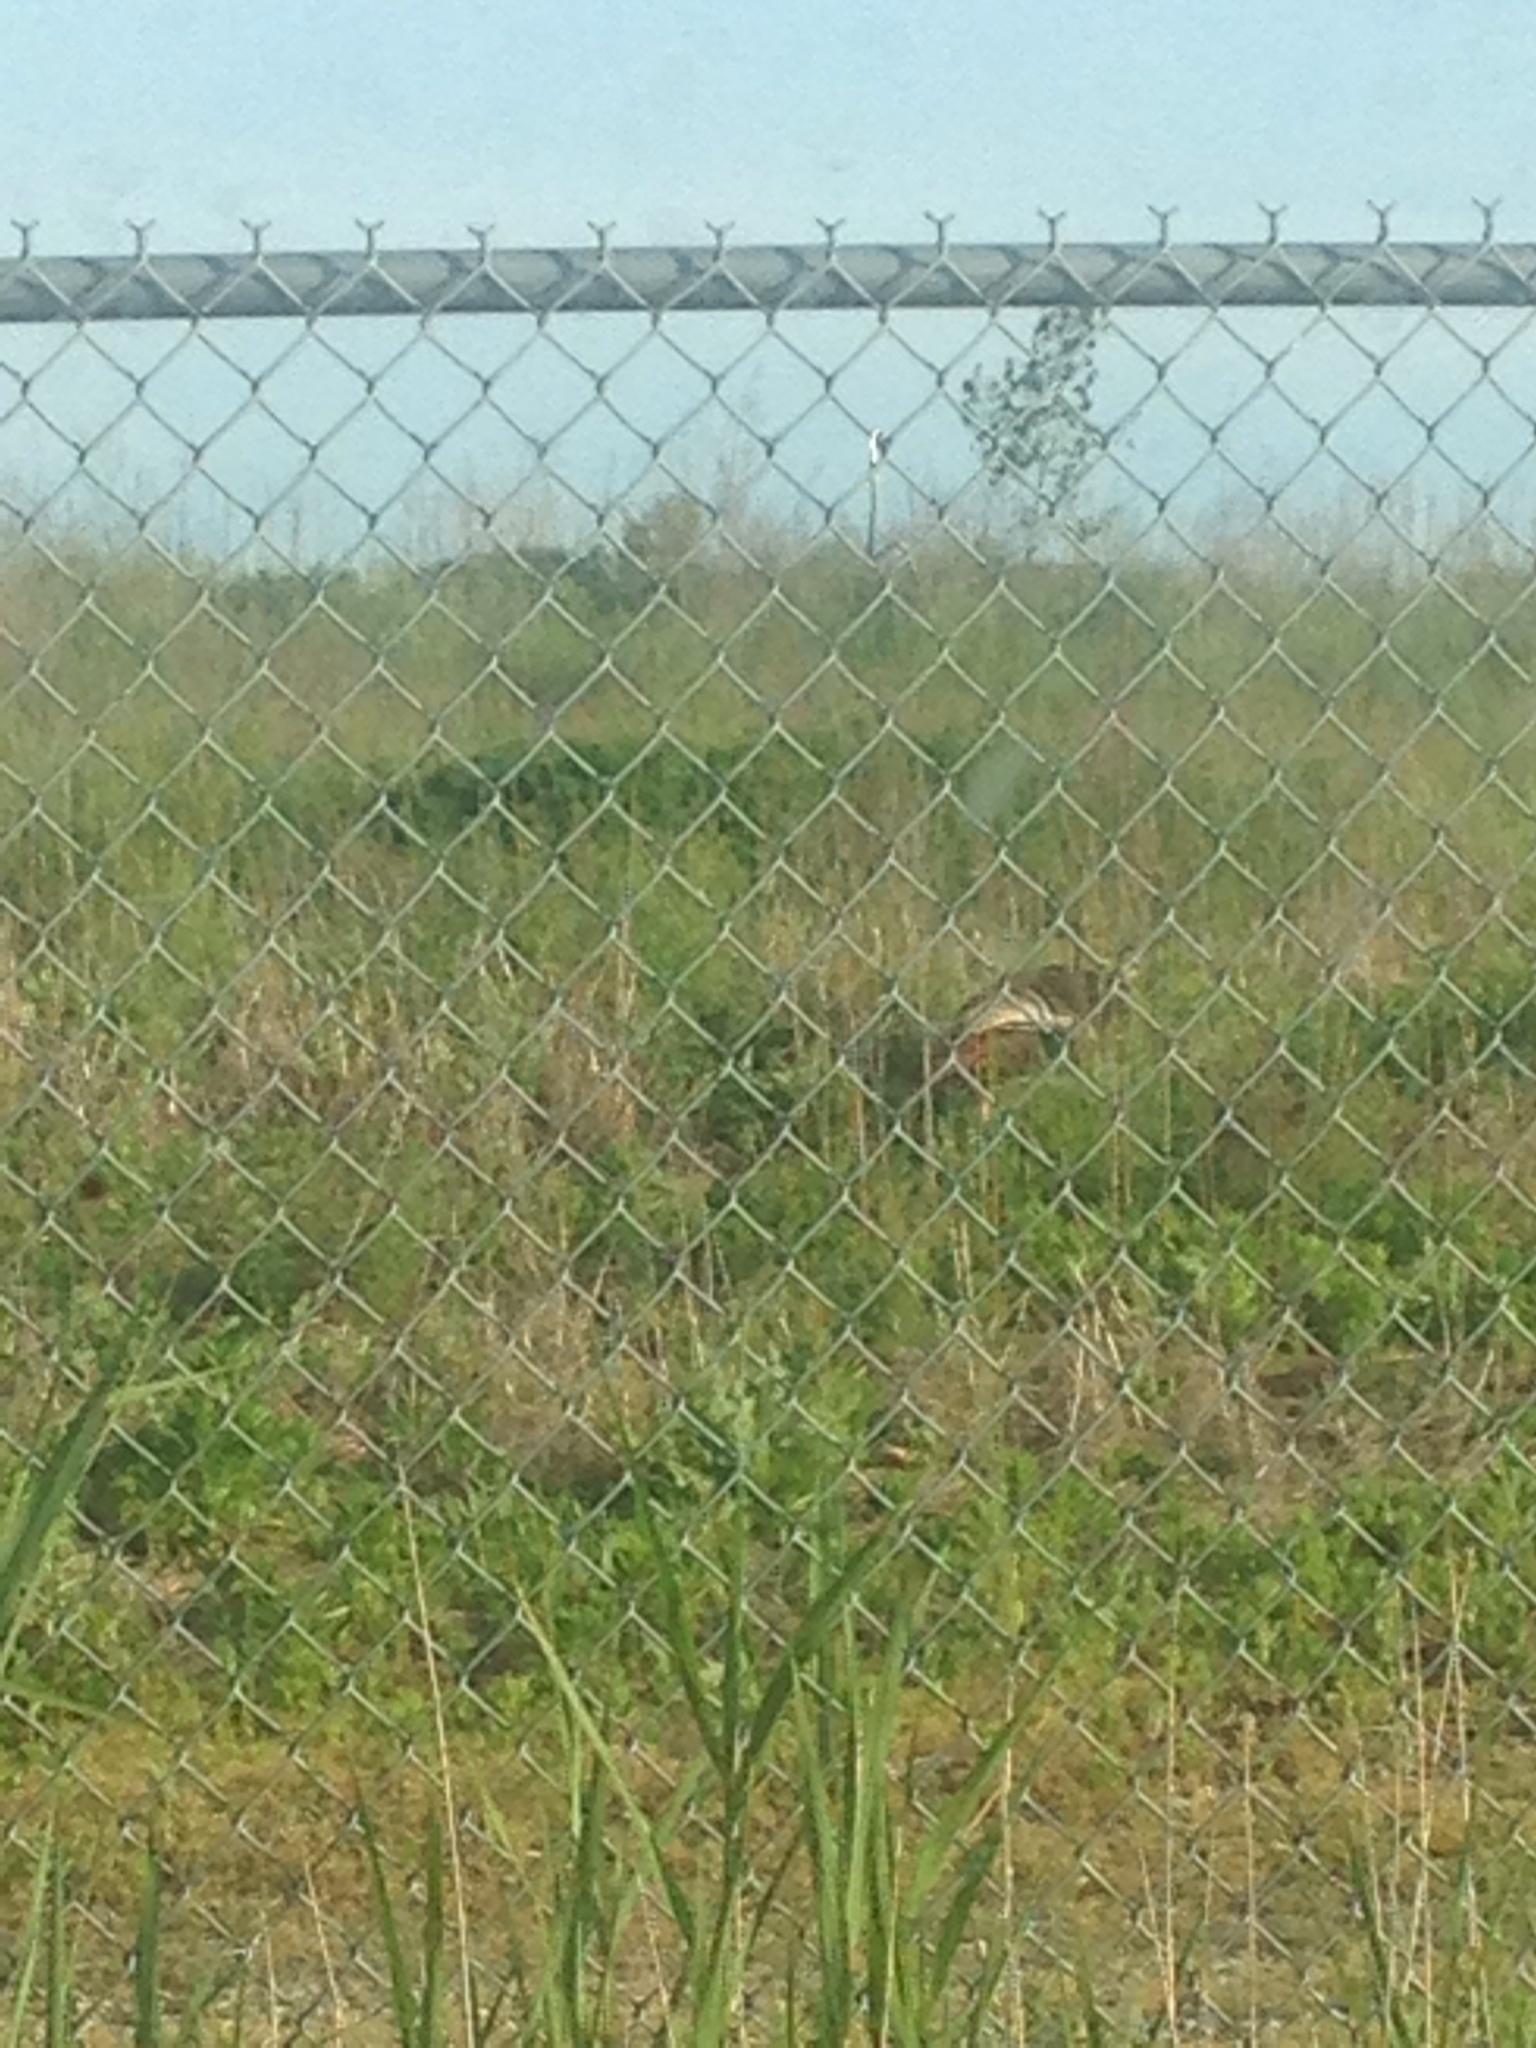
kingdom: Animalia
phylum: Chordata
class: Aves
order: Galliformes
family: Phasianidae
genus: Meleagris
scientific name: Meleagris gallopavo
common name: Wild turkey
